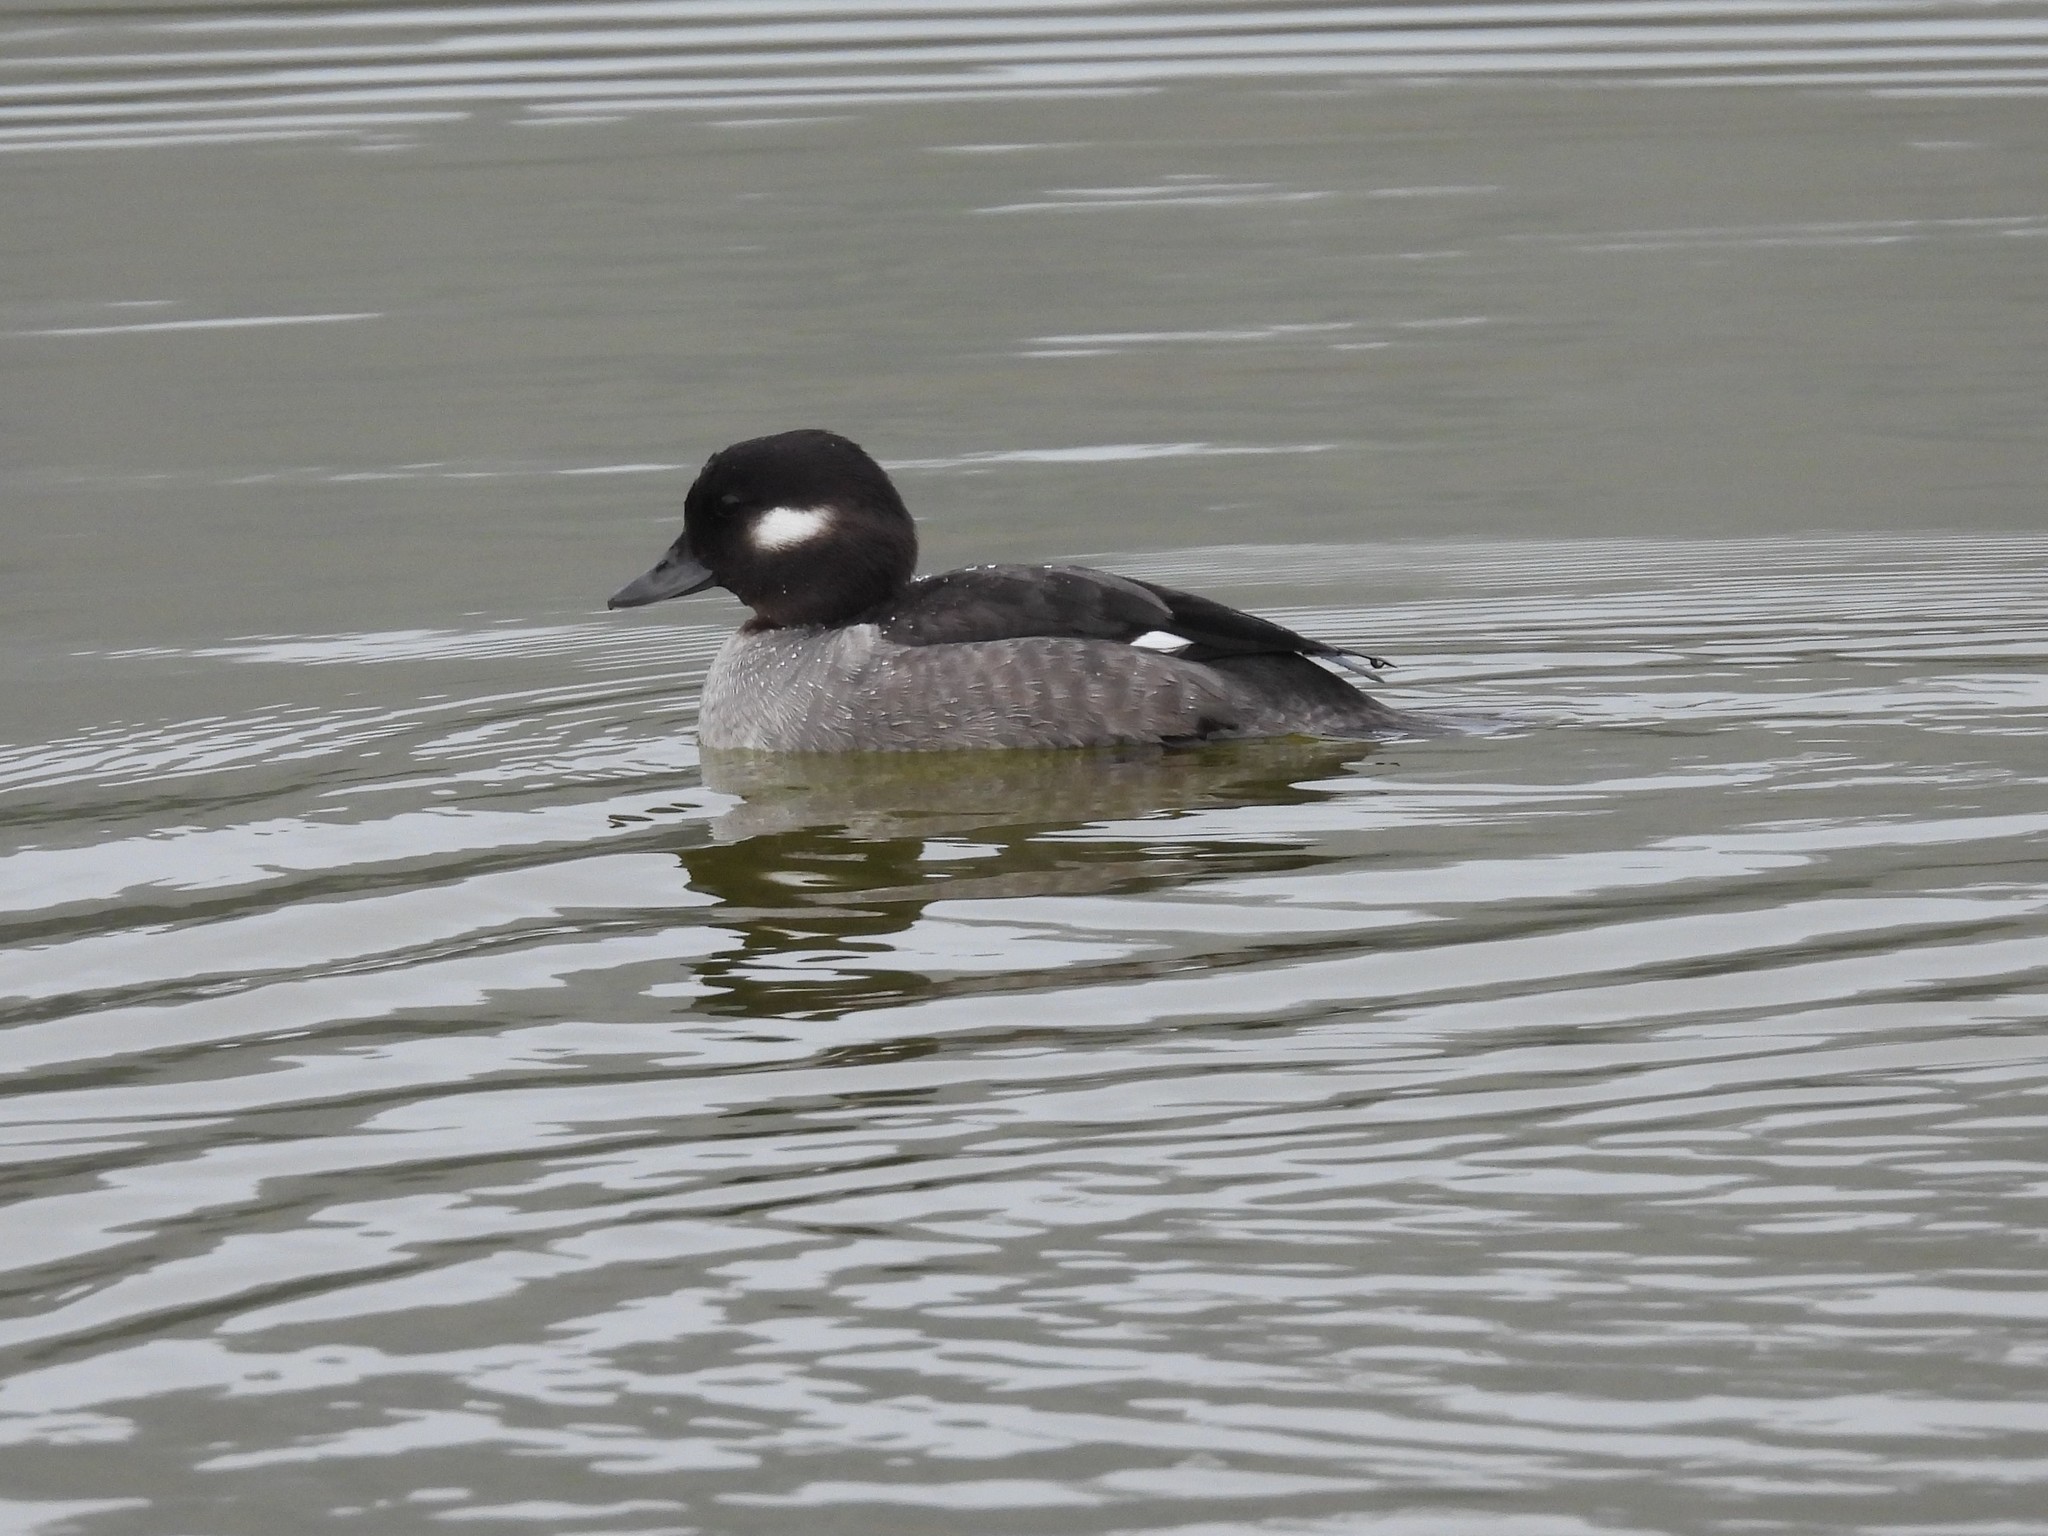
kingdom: Animalia
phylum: Chordata
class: Aves
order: Anseriformes
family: Anatidae
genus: Bucephala
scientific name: Bucephala albeola
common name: Bufflehead
